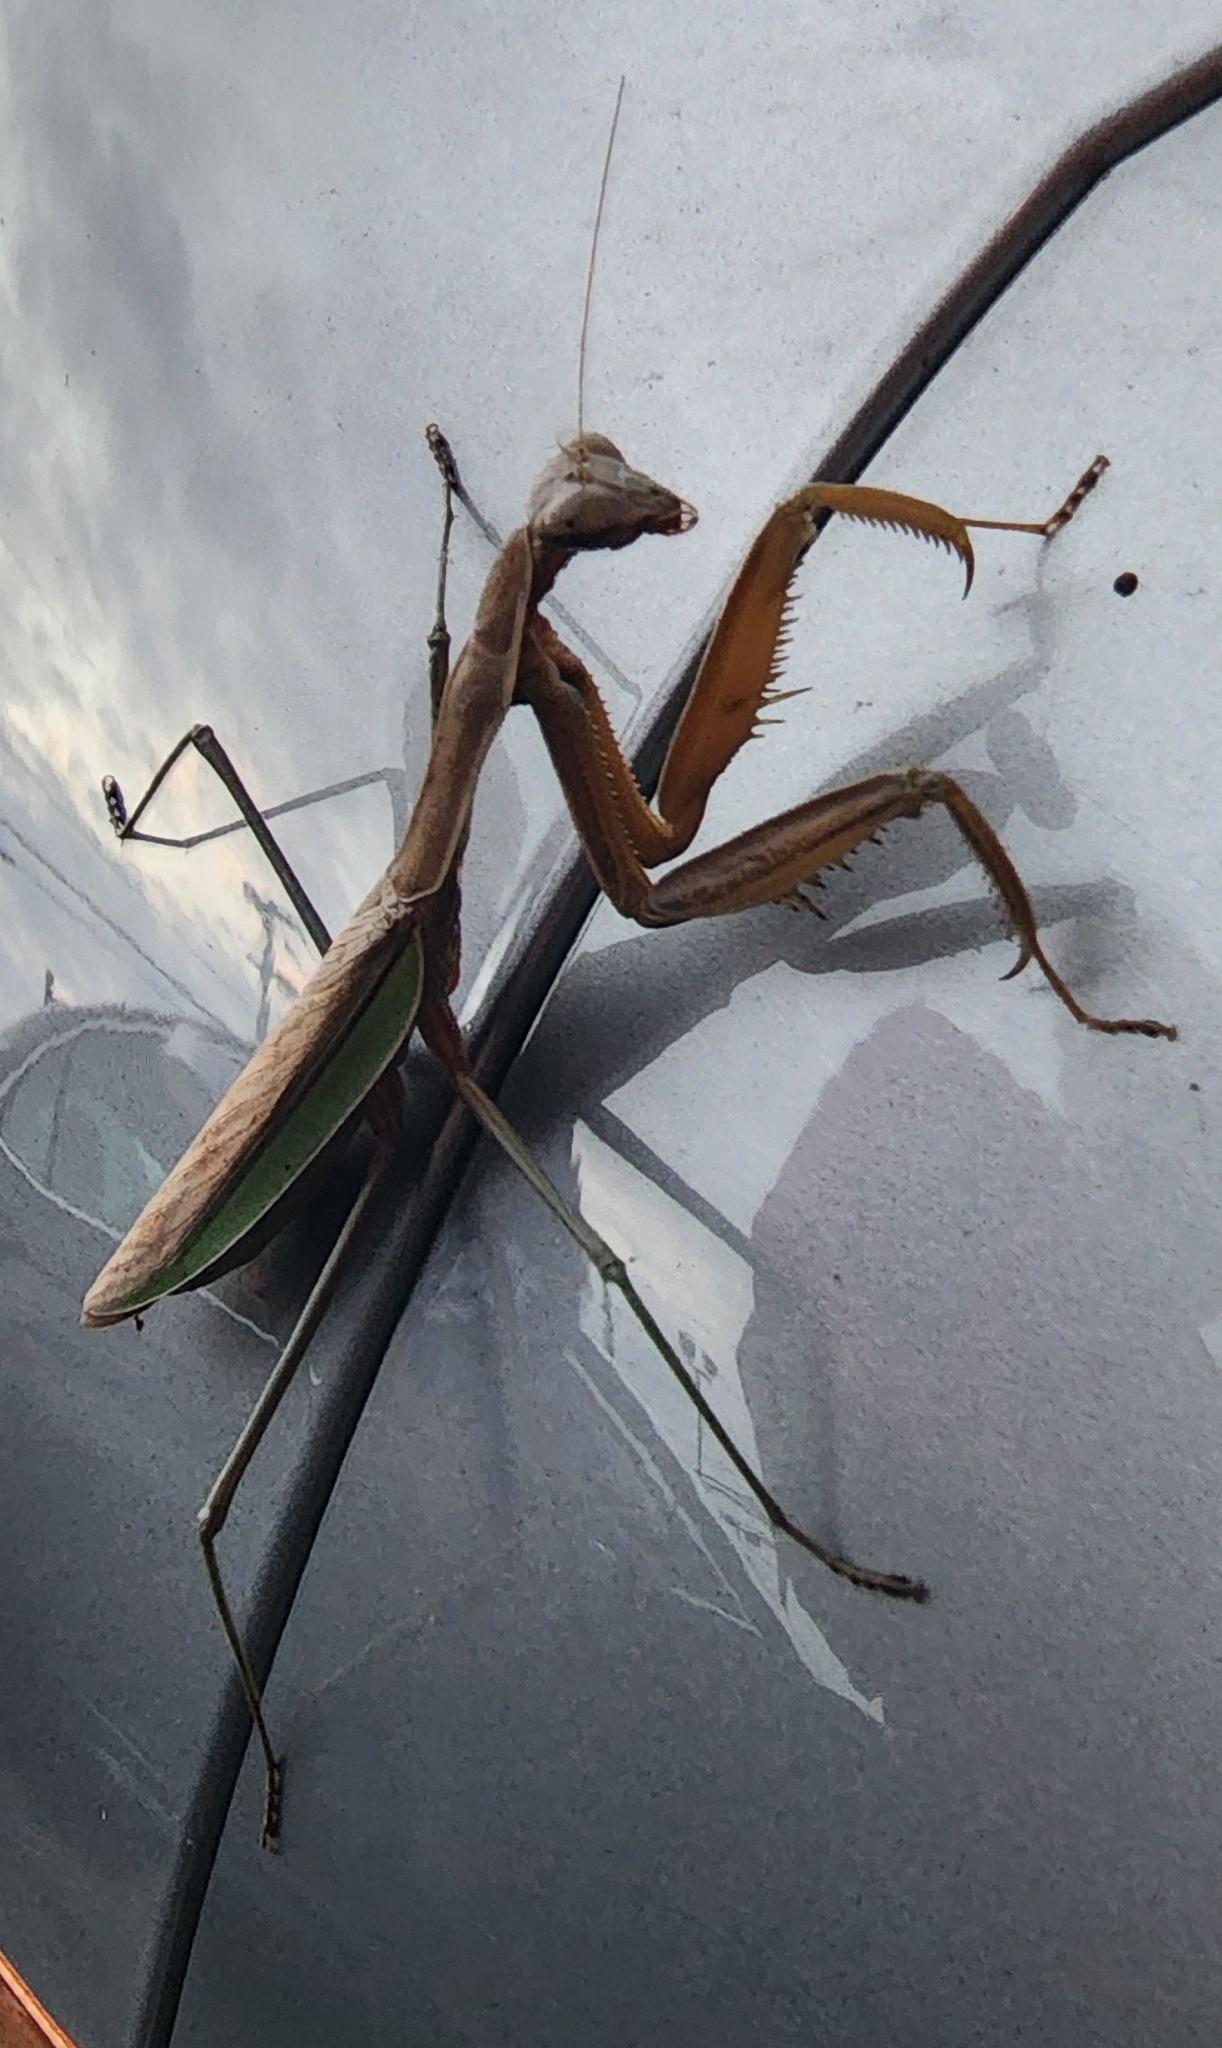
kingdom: Animalia
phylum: Arthropoda
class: Insecta
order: Mantodea
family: Mantidae
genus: Tenodera
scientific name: Tenodera sinensis
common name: Chinese mantis
